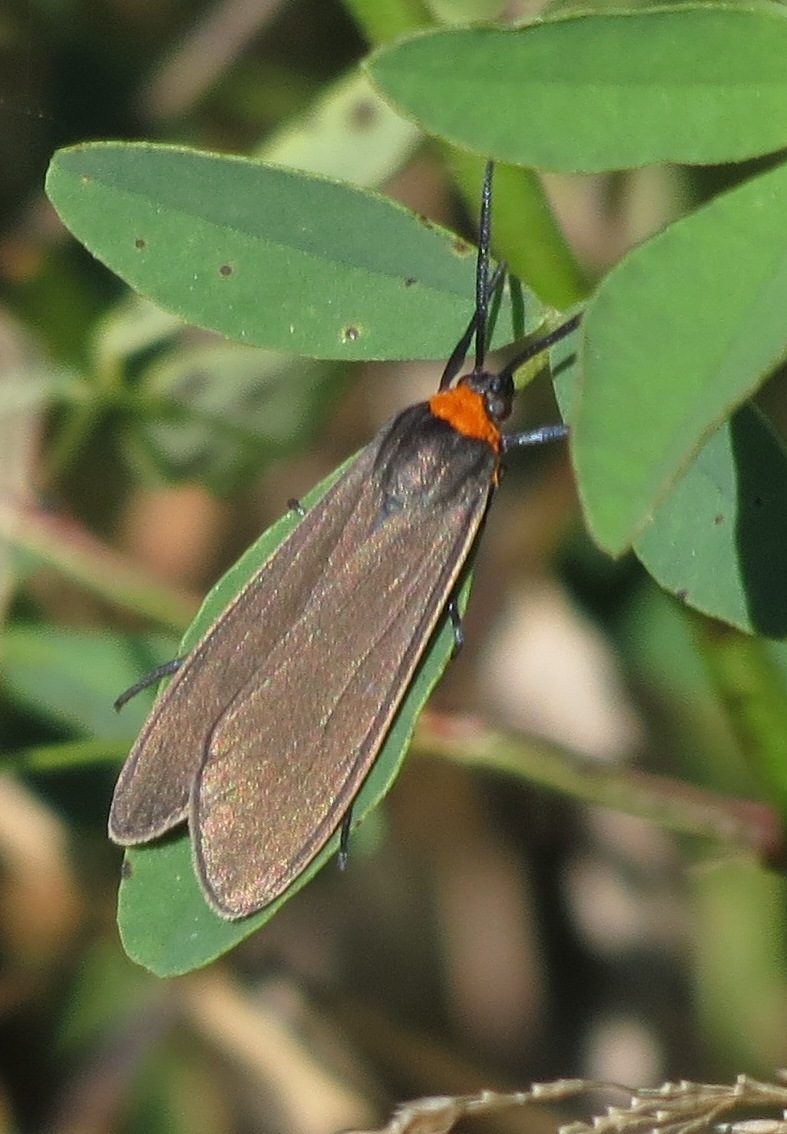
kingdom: Animalia
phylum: Arthropoda
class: Insecta
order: Lepidoptera
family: Erebidae
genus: Cisseps
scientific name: Cisseps fulvicollis
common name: Yellow-collared scape moth
